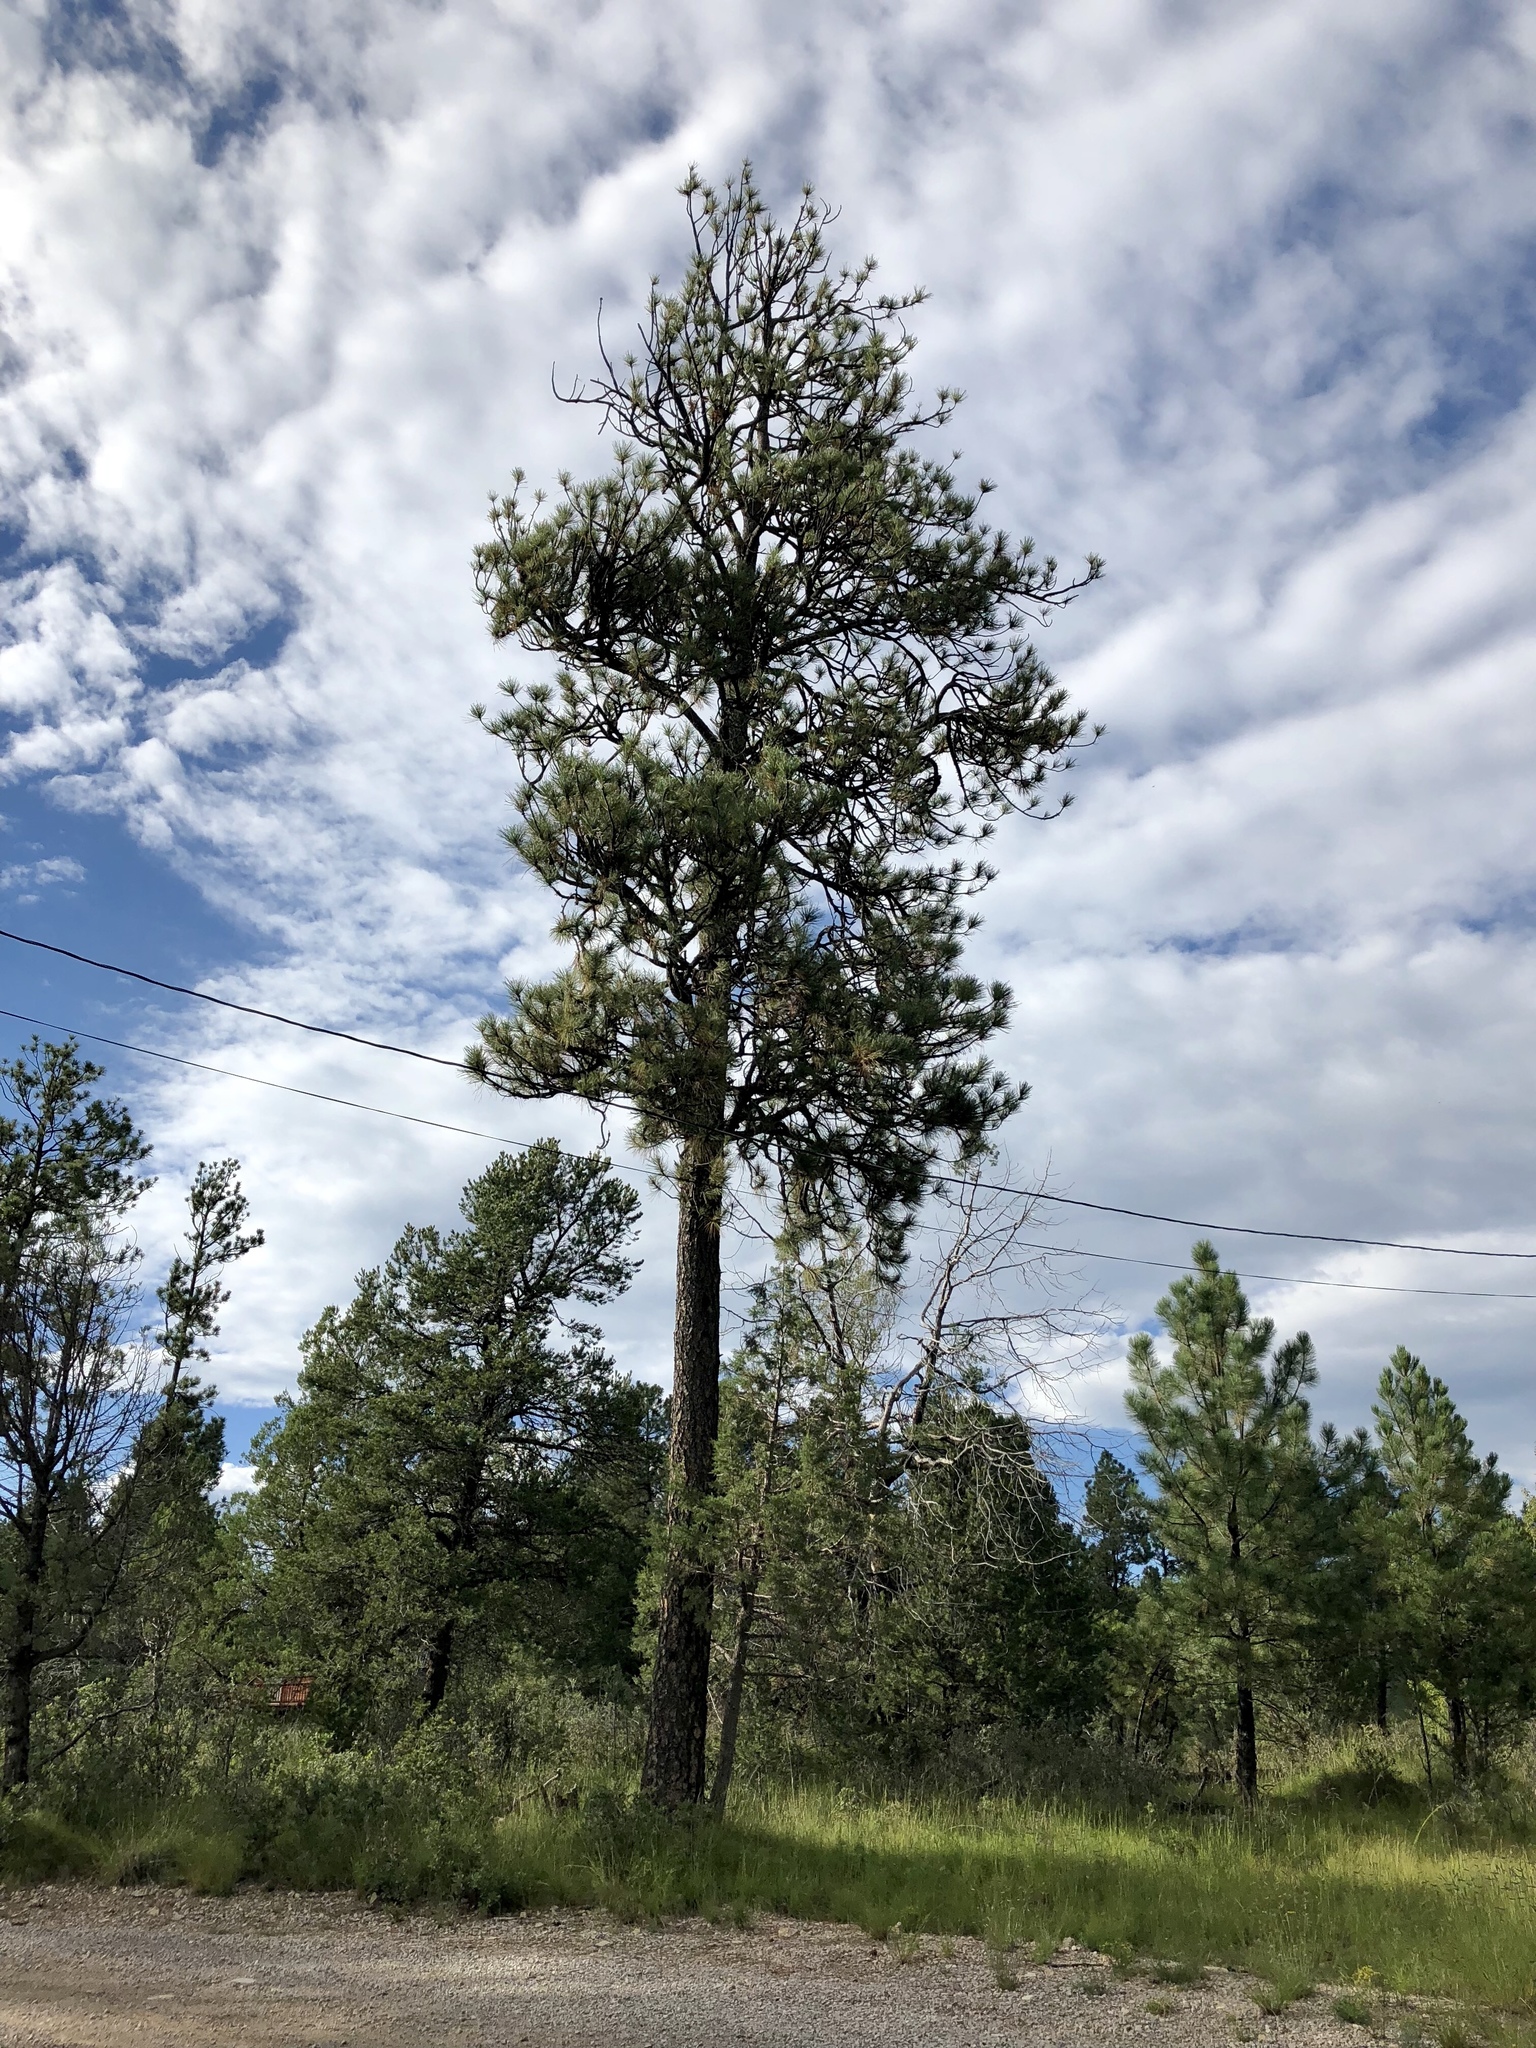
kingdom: Plantae
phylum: Tracheophyta
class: Pinopsida
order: Pinales
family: Pinaceae
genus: Pinus
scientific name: Pinus ponderosa
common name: Western yellow-pine
